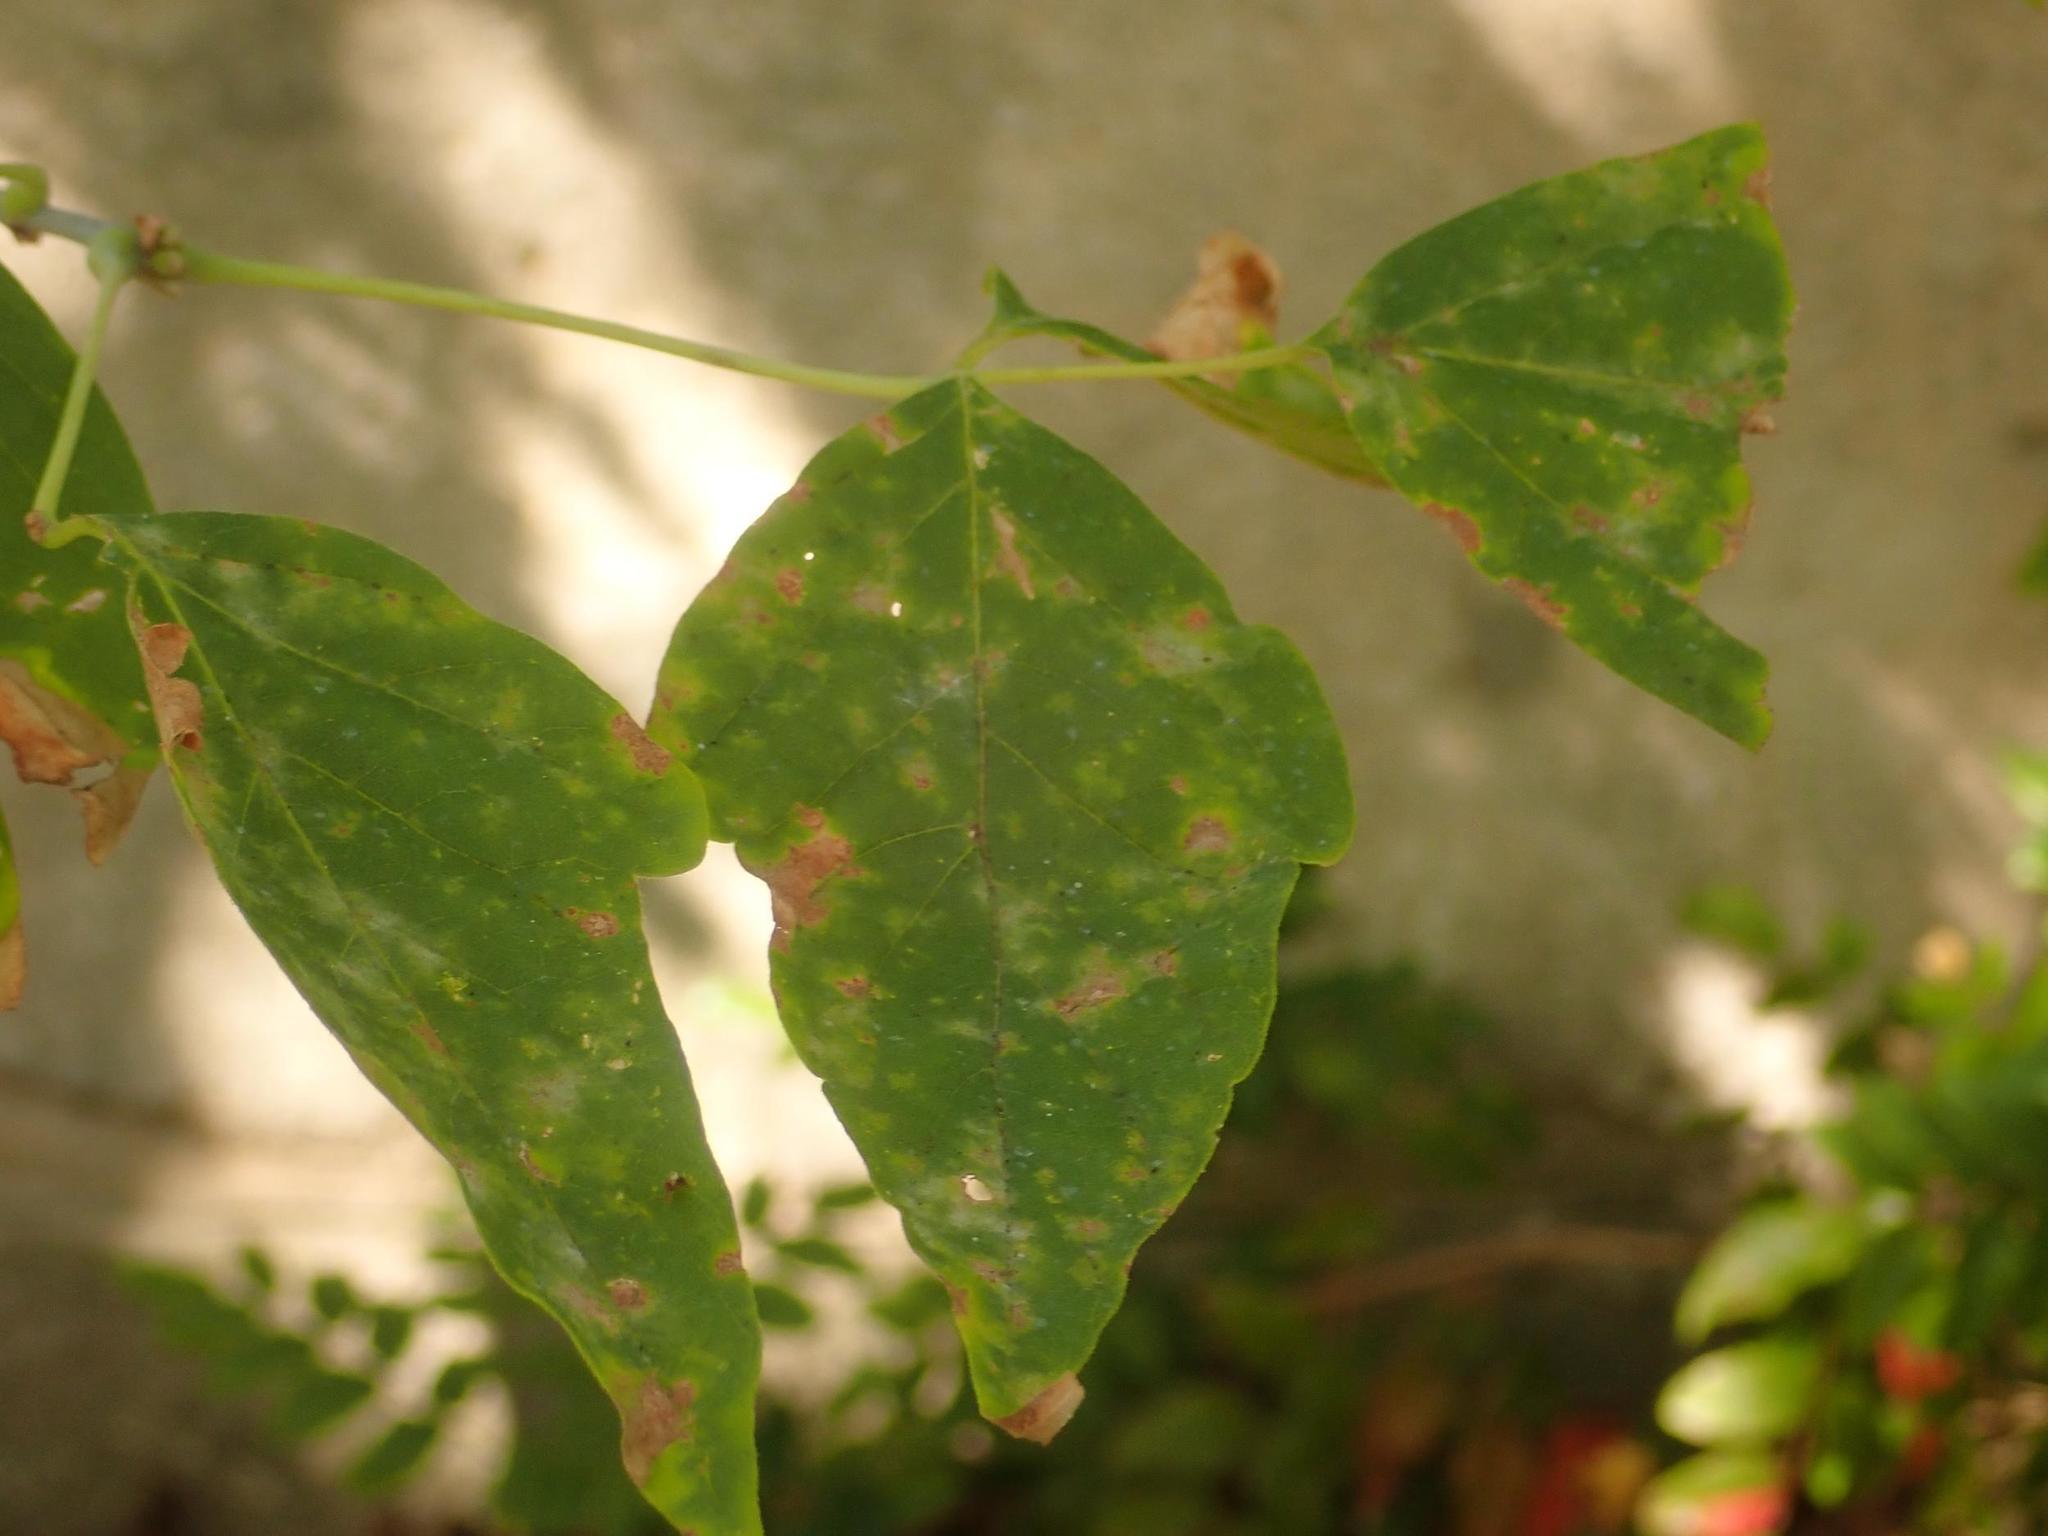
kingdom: Plantae
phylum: Tracheophyta
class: Magnoliopsida
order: Sapindales
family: Sapindaceae
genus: Acer
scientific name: Acer negundo
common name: Ashleaf maple
